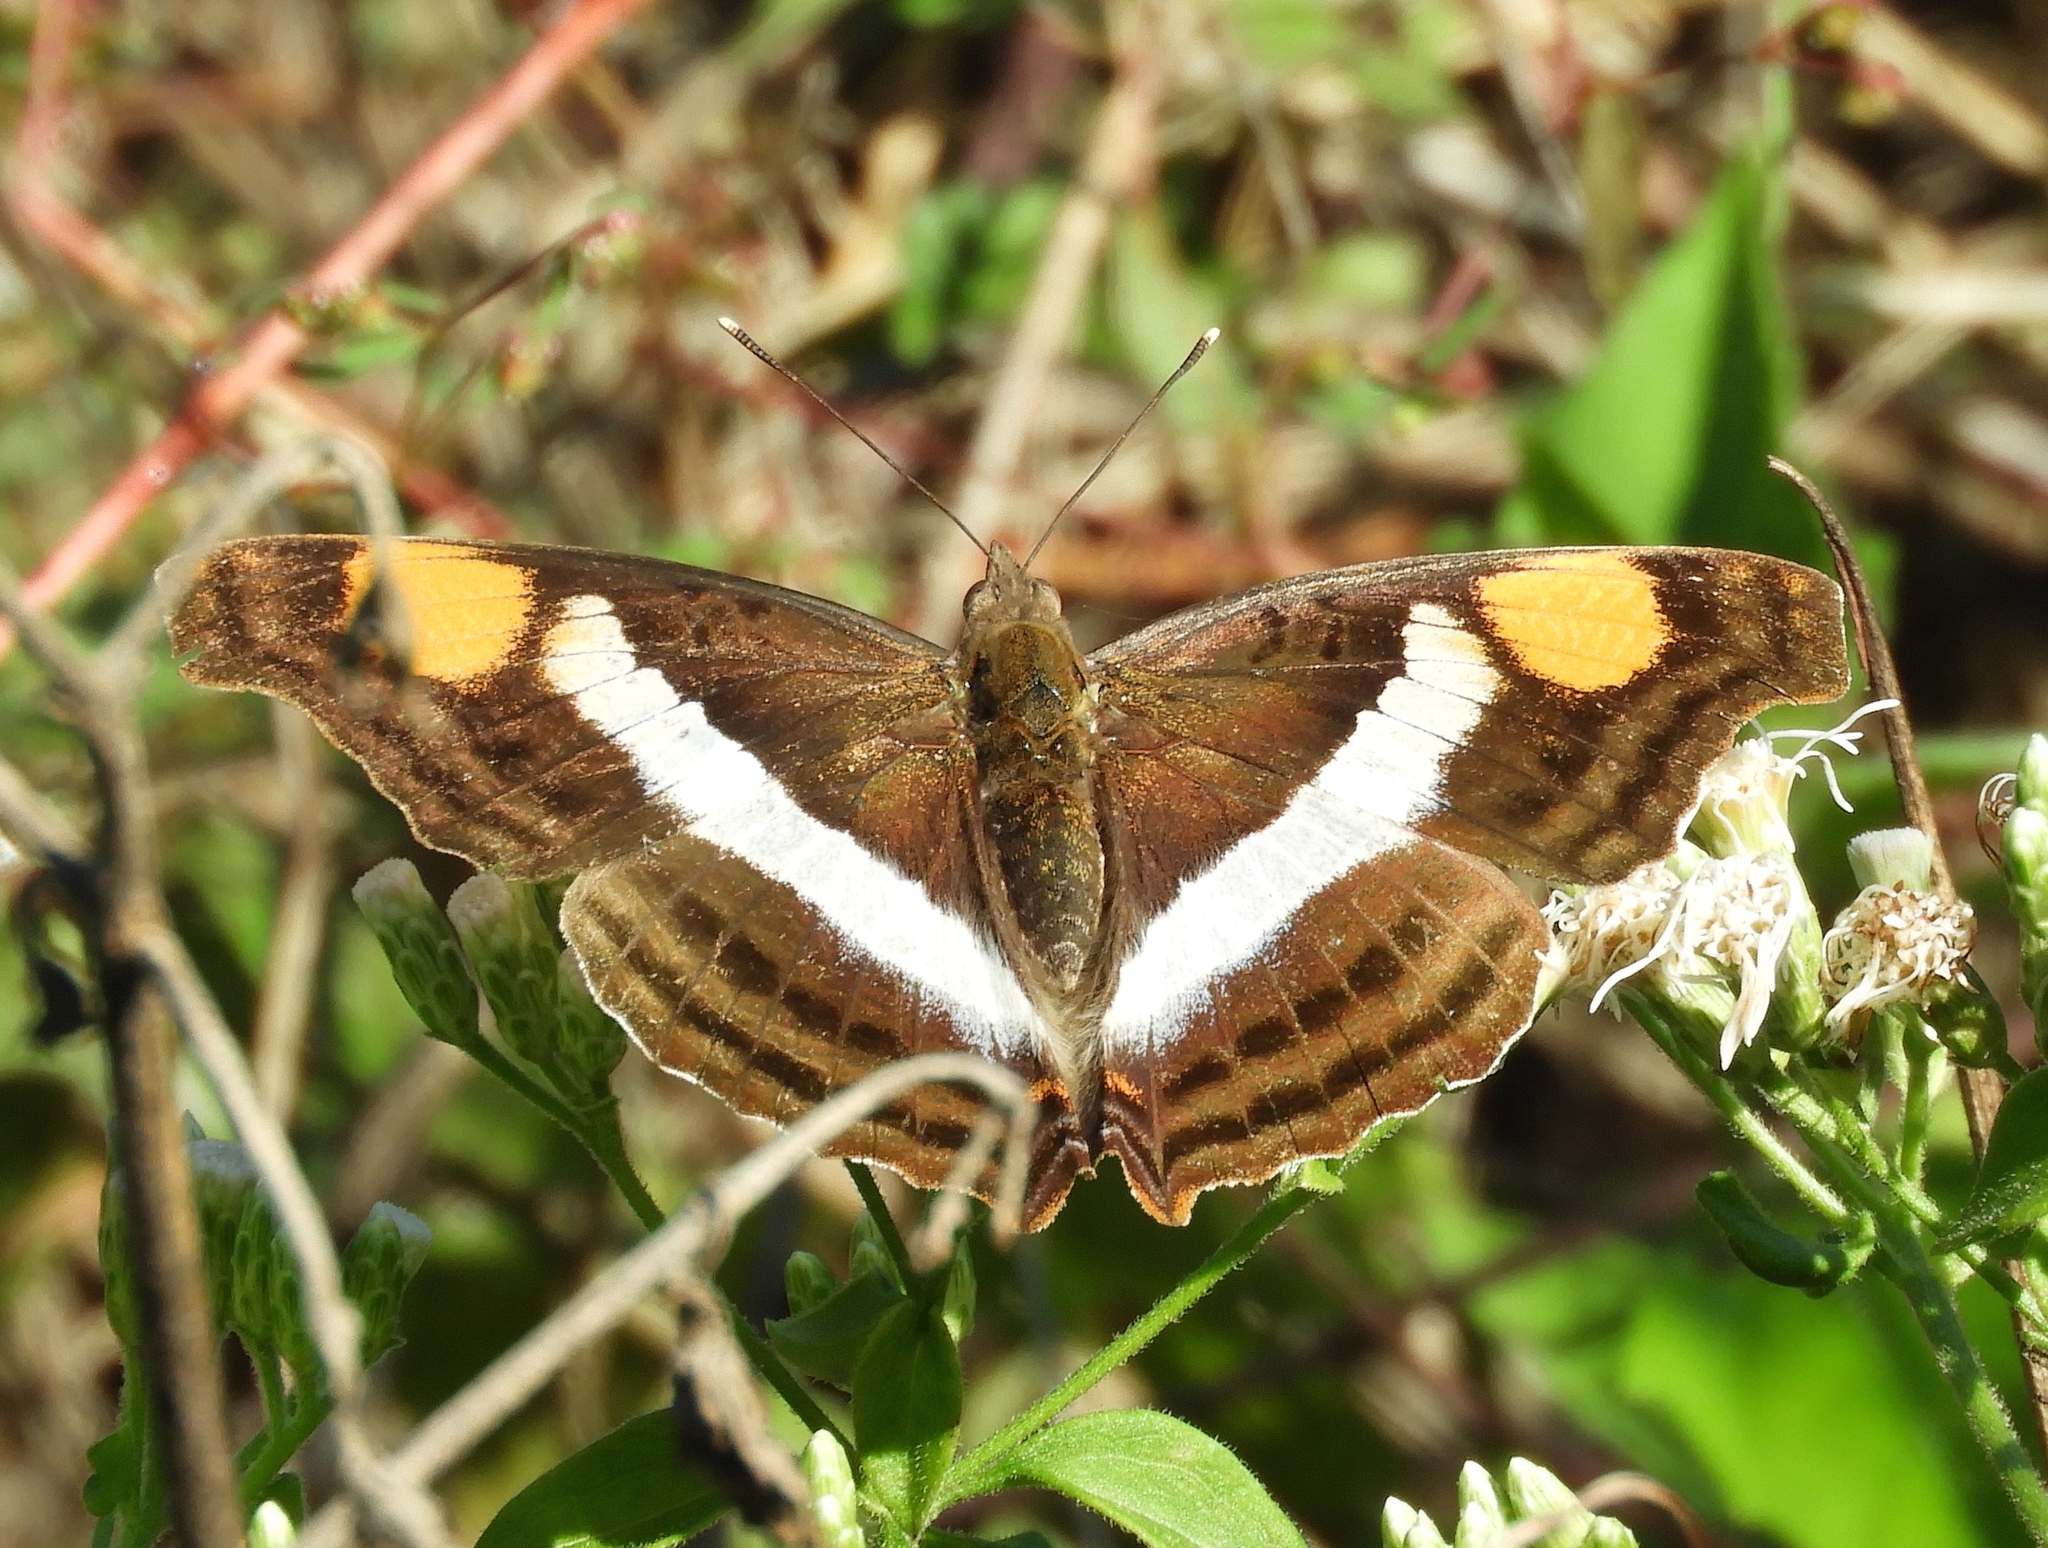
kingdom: Animalia
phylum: Arthropoda
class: Insecta
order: Lepidoptera
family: Nymphalidae
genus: Doxocopa
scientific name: Doxocopa laure
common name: Silver emperor
